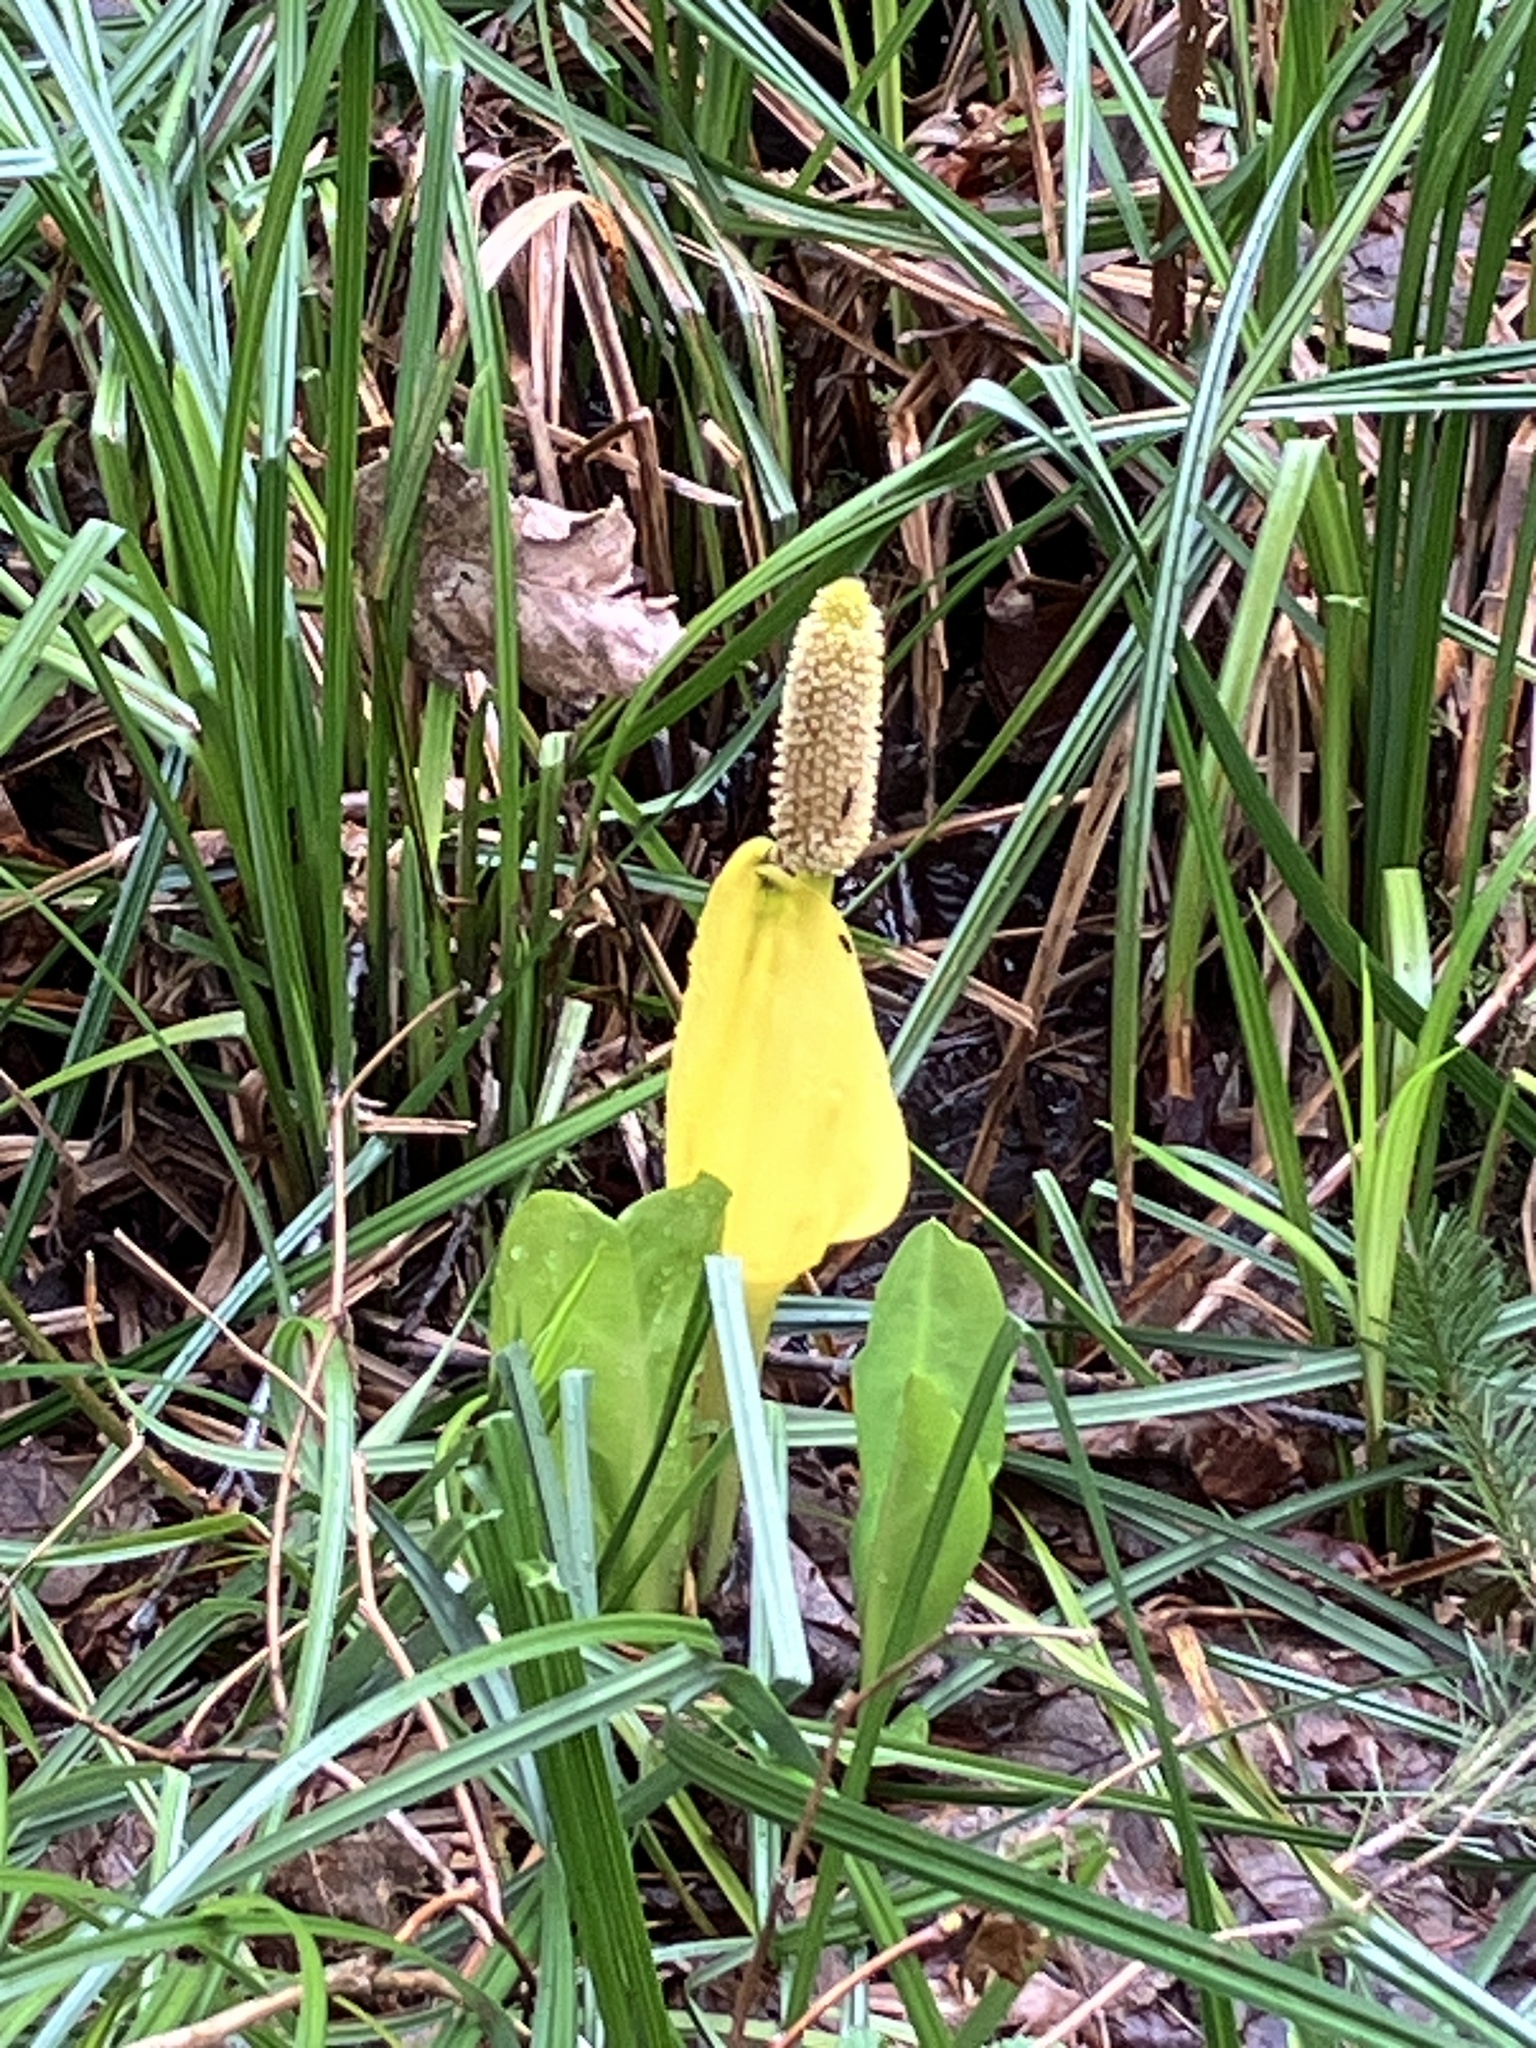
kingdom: Plantae
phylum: Tracheophyta
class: Liliopsida
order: Alismatales
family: Araceae
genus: Lysichiton
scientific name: Lysichiton americanus
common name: American skunk cabbage
